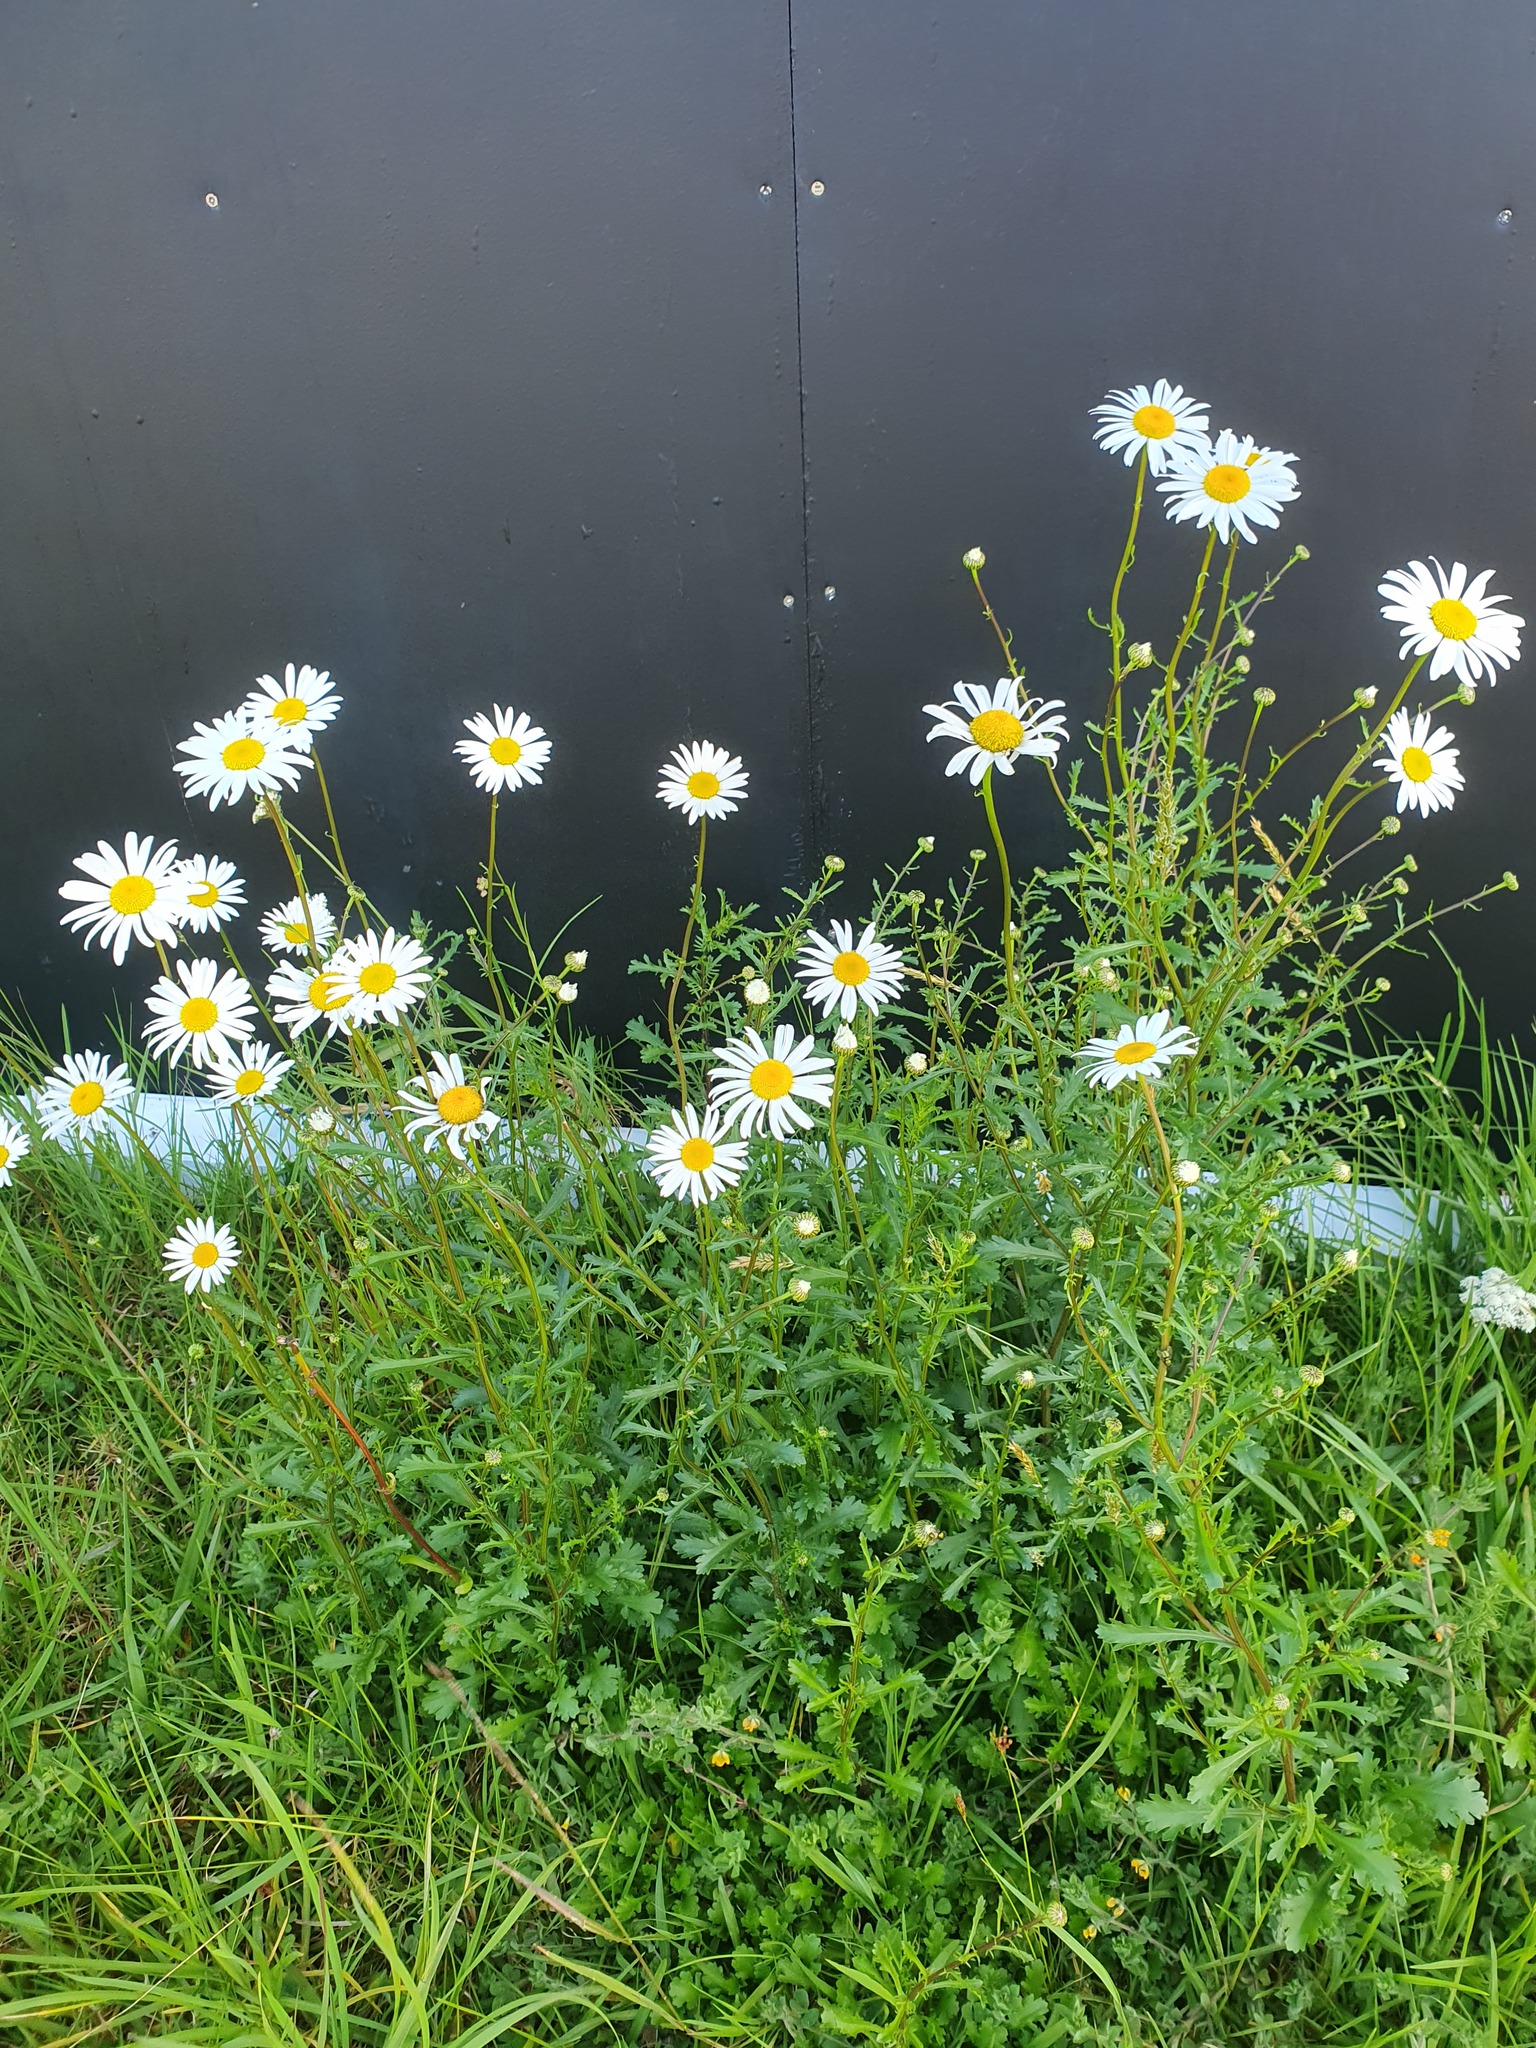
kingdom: Plantae
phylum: Tracheophyta
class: Magnoliopsida
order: Asterales
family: Asteraceae
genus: Leucanthemum
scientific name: Leucanthemum vulgare
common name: Oxeye daisy
